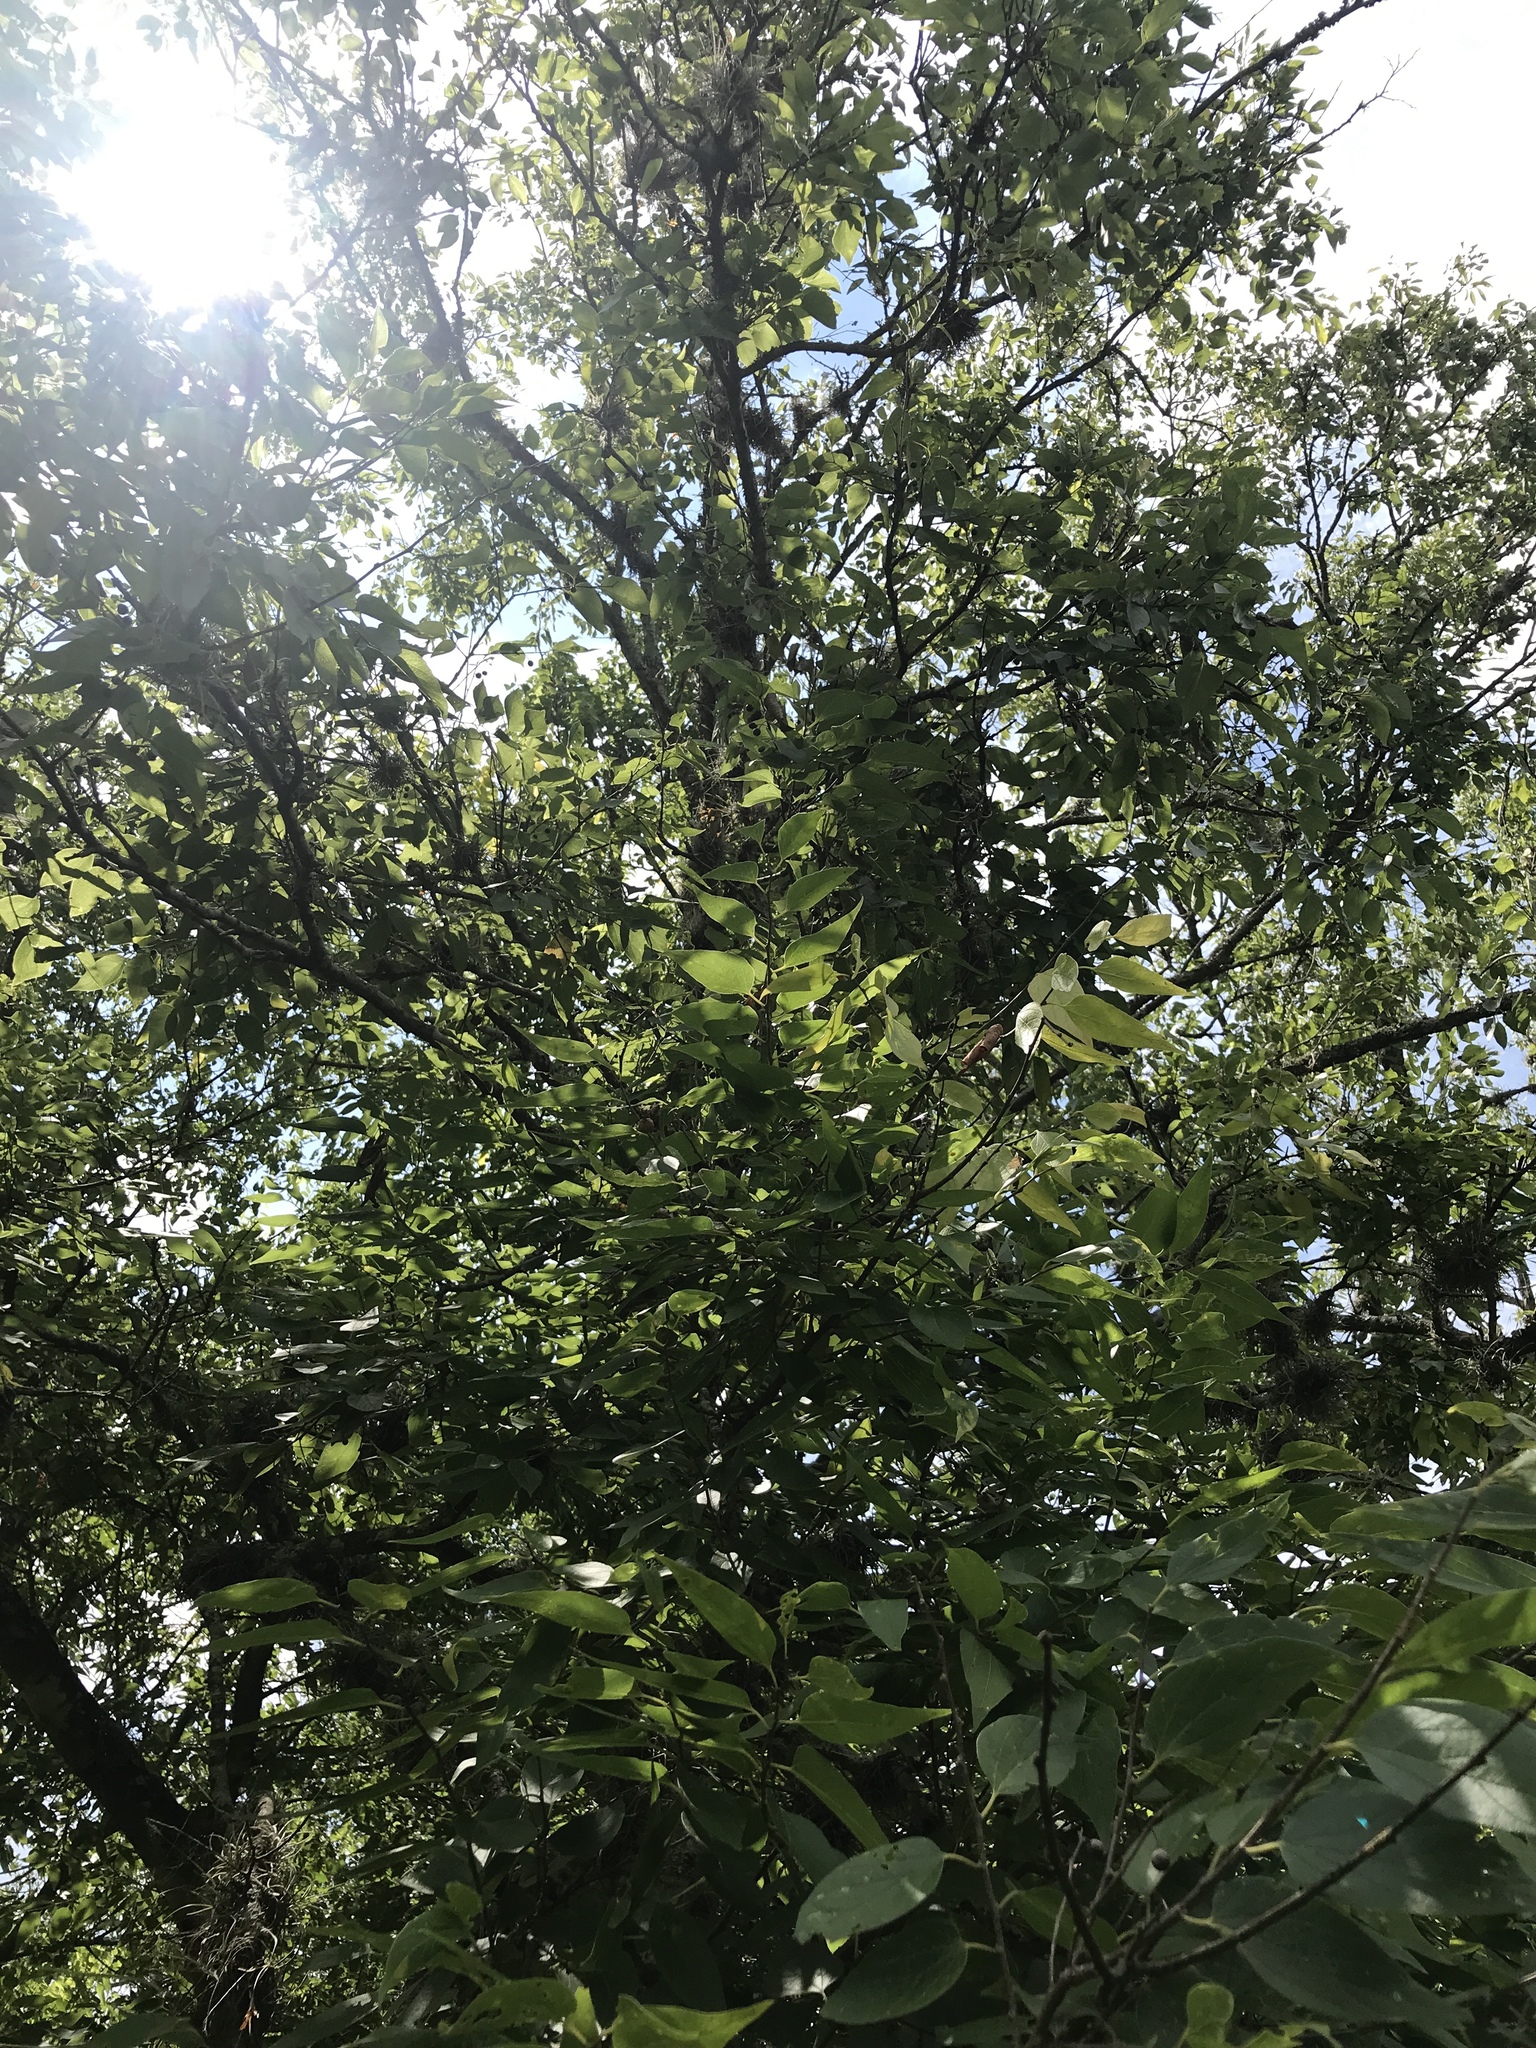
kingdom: Plantae
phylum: Tracheophyta
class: Magnoliopsida
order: Rosales
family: Cannabaceae
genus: Celtis
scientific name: Celtis laevigata
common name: Sugarberry
